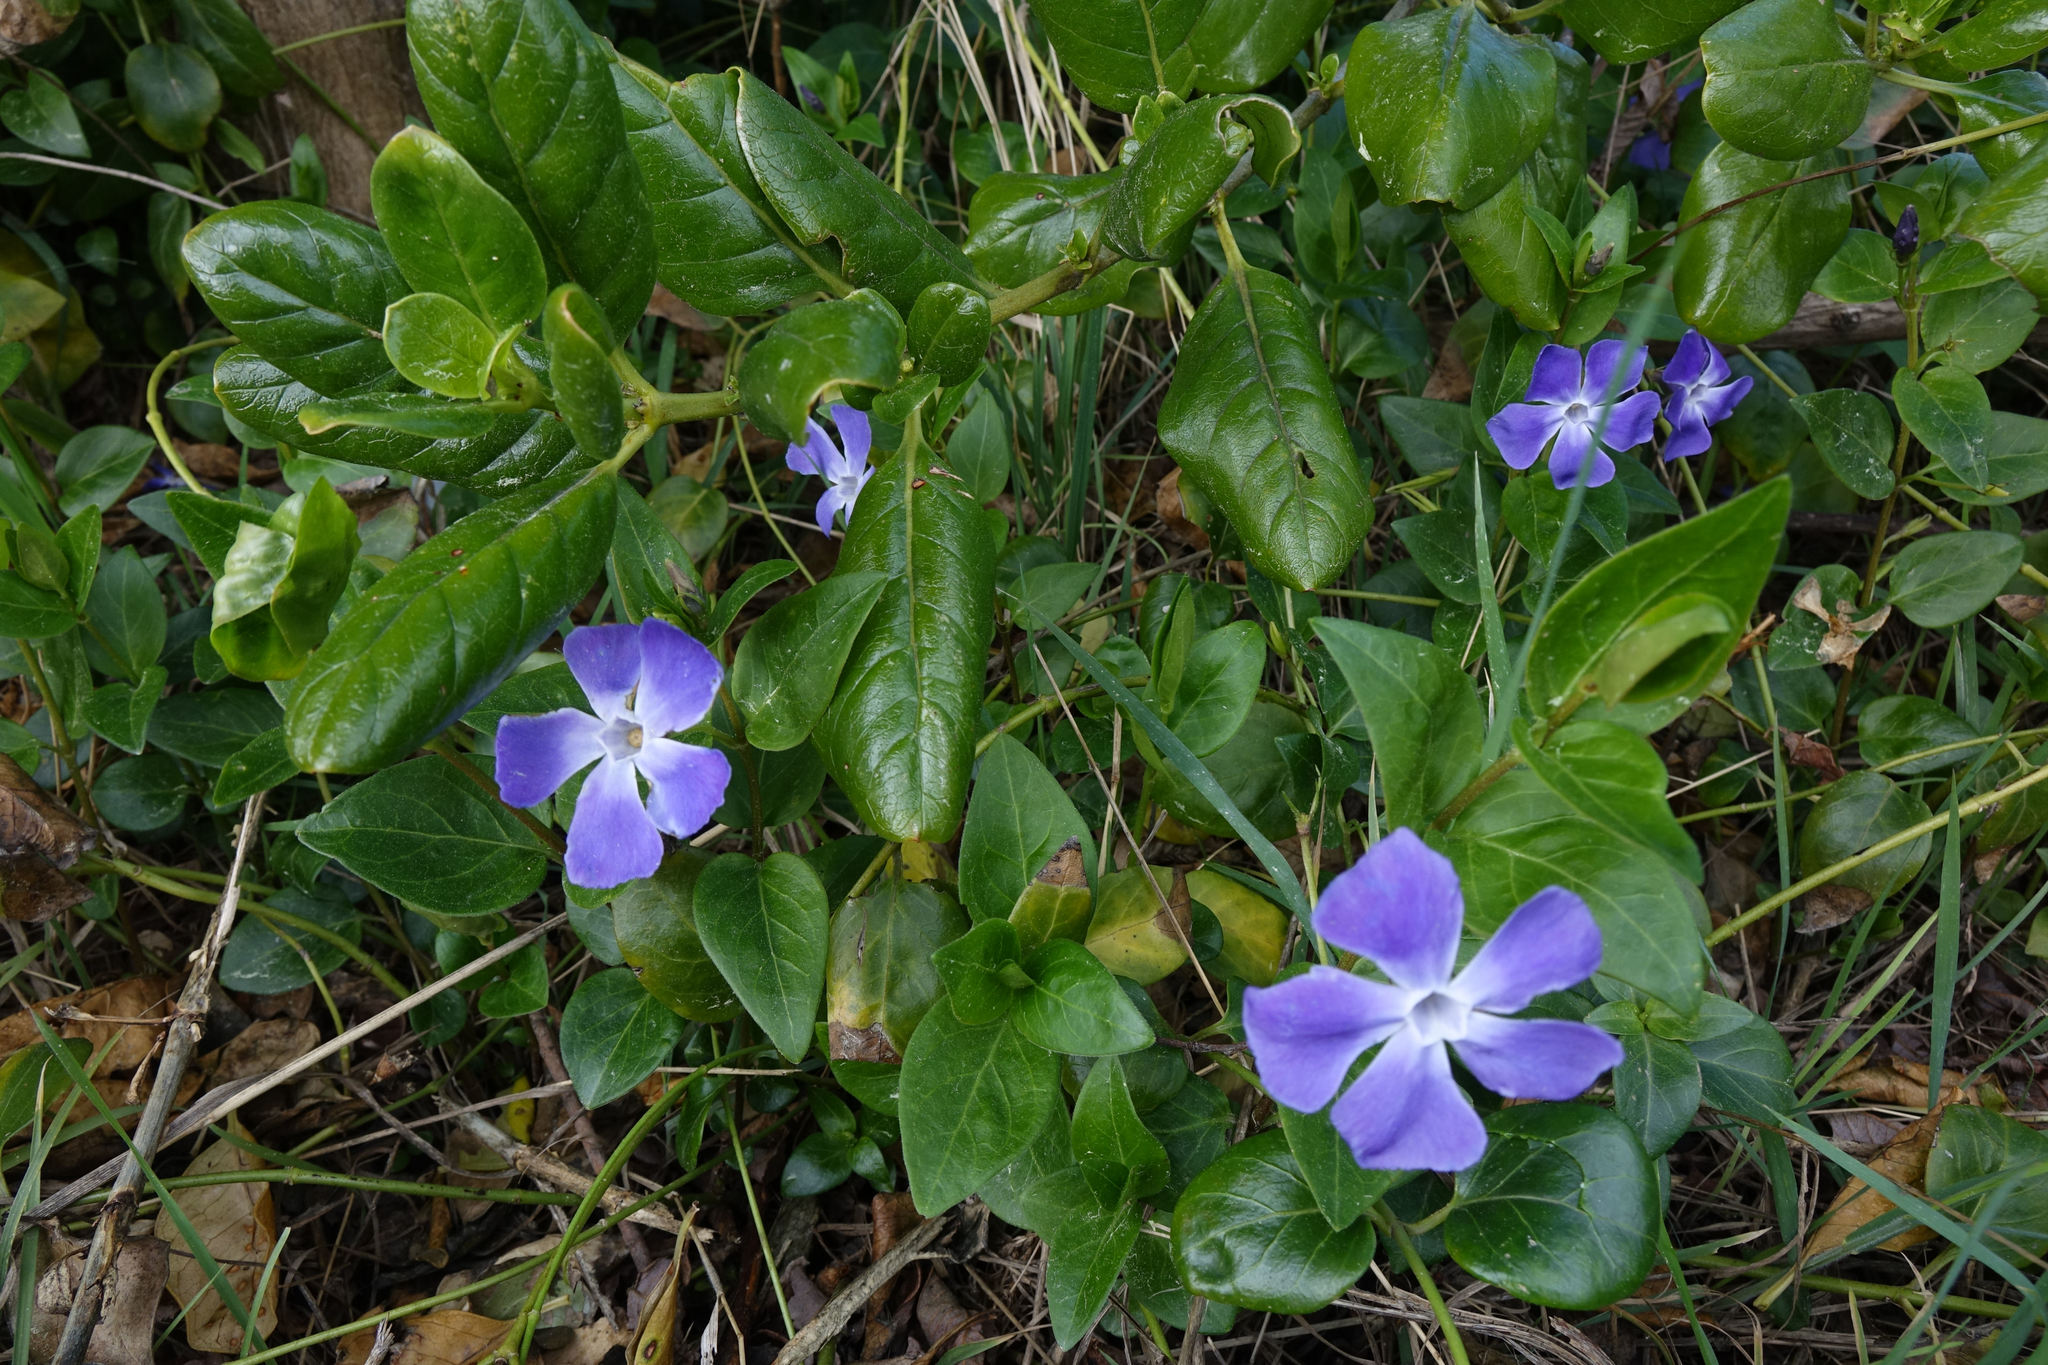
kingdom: Plantae
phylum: Tracheophyta
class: Magnoliopsida
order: Gentianales
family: Apocynaceae
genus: Vinca
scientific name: Vinca major
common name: Greater periwinkle
